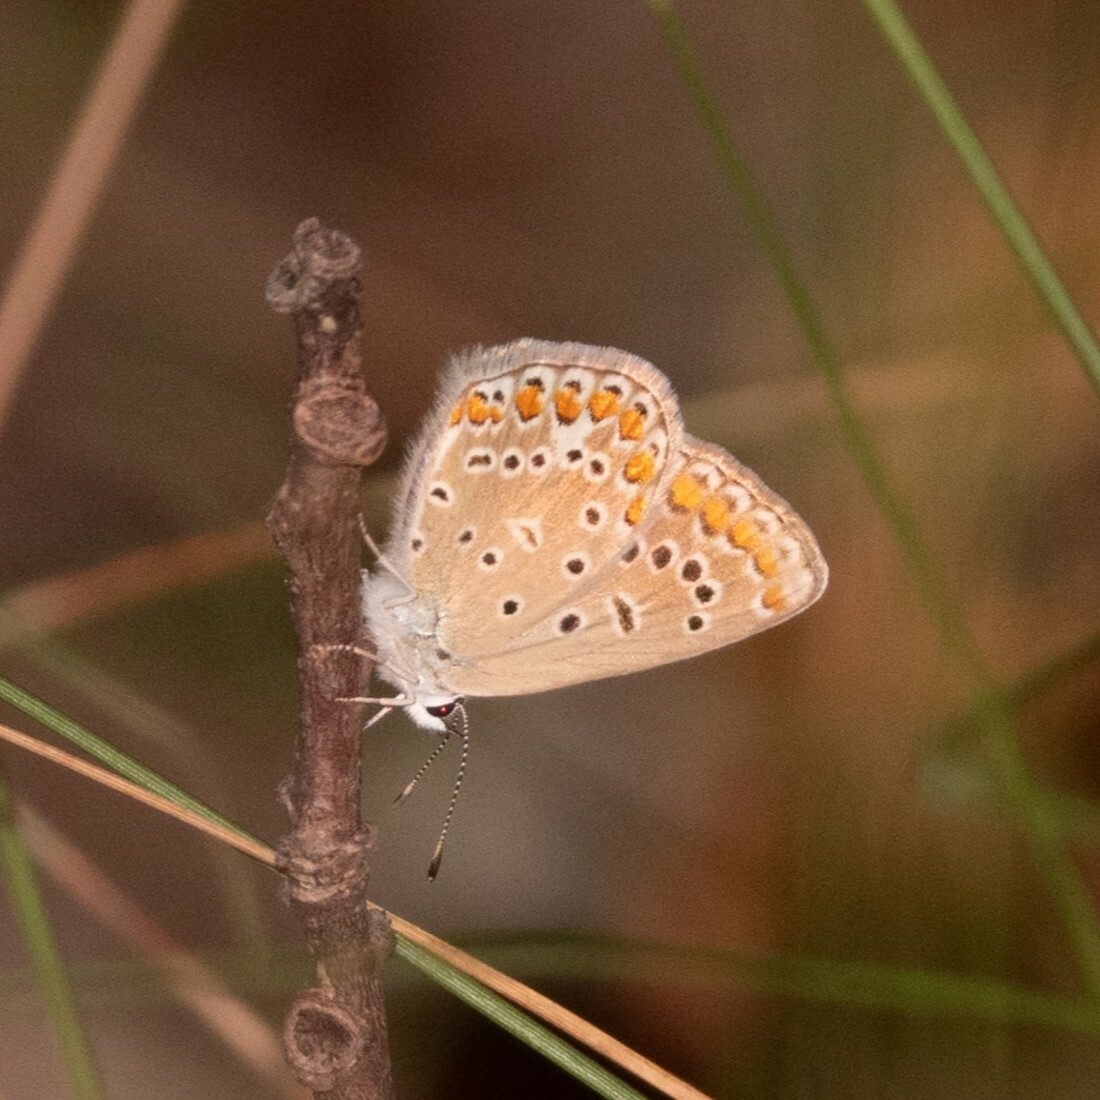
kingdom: Animalia
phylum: Arthropoda
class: Insecta
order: Lepidoptera
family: Lycaenidae
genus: Polyommatus
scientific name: Polyommatus icarus
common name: Common blue
